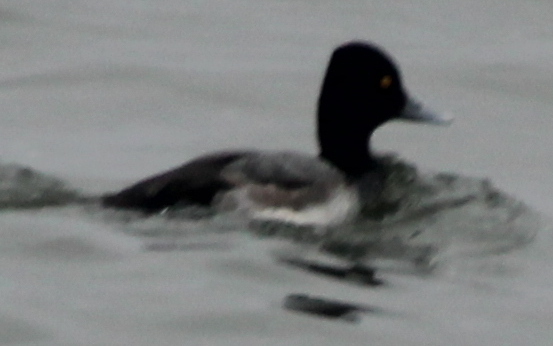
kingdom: Animalia
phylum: Chordata
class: Aves
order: Anseriformes
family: Anatidae
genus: Aythya
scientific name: Aythya affinis
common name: Lesser scaup
